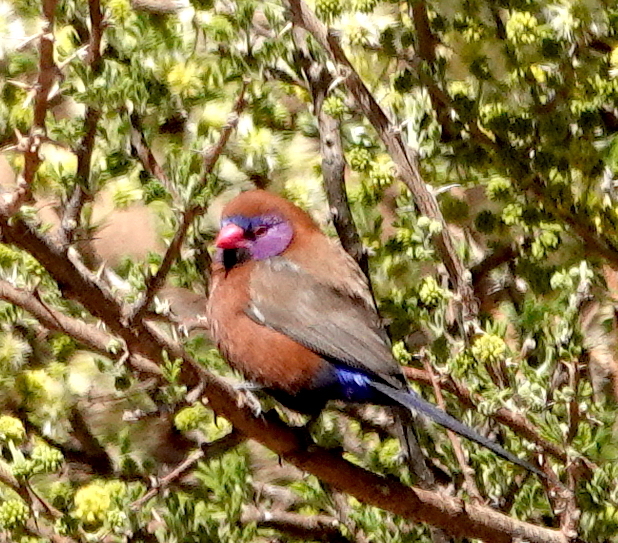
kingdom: Animalia
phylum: Chordata
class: Aves
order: Passeriformes
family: Estrildidae
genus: Uraeginthus
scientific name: Uraeginthus granatinus
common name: Violet-eared waxbill
